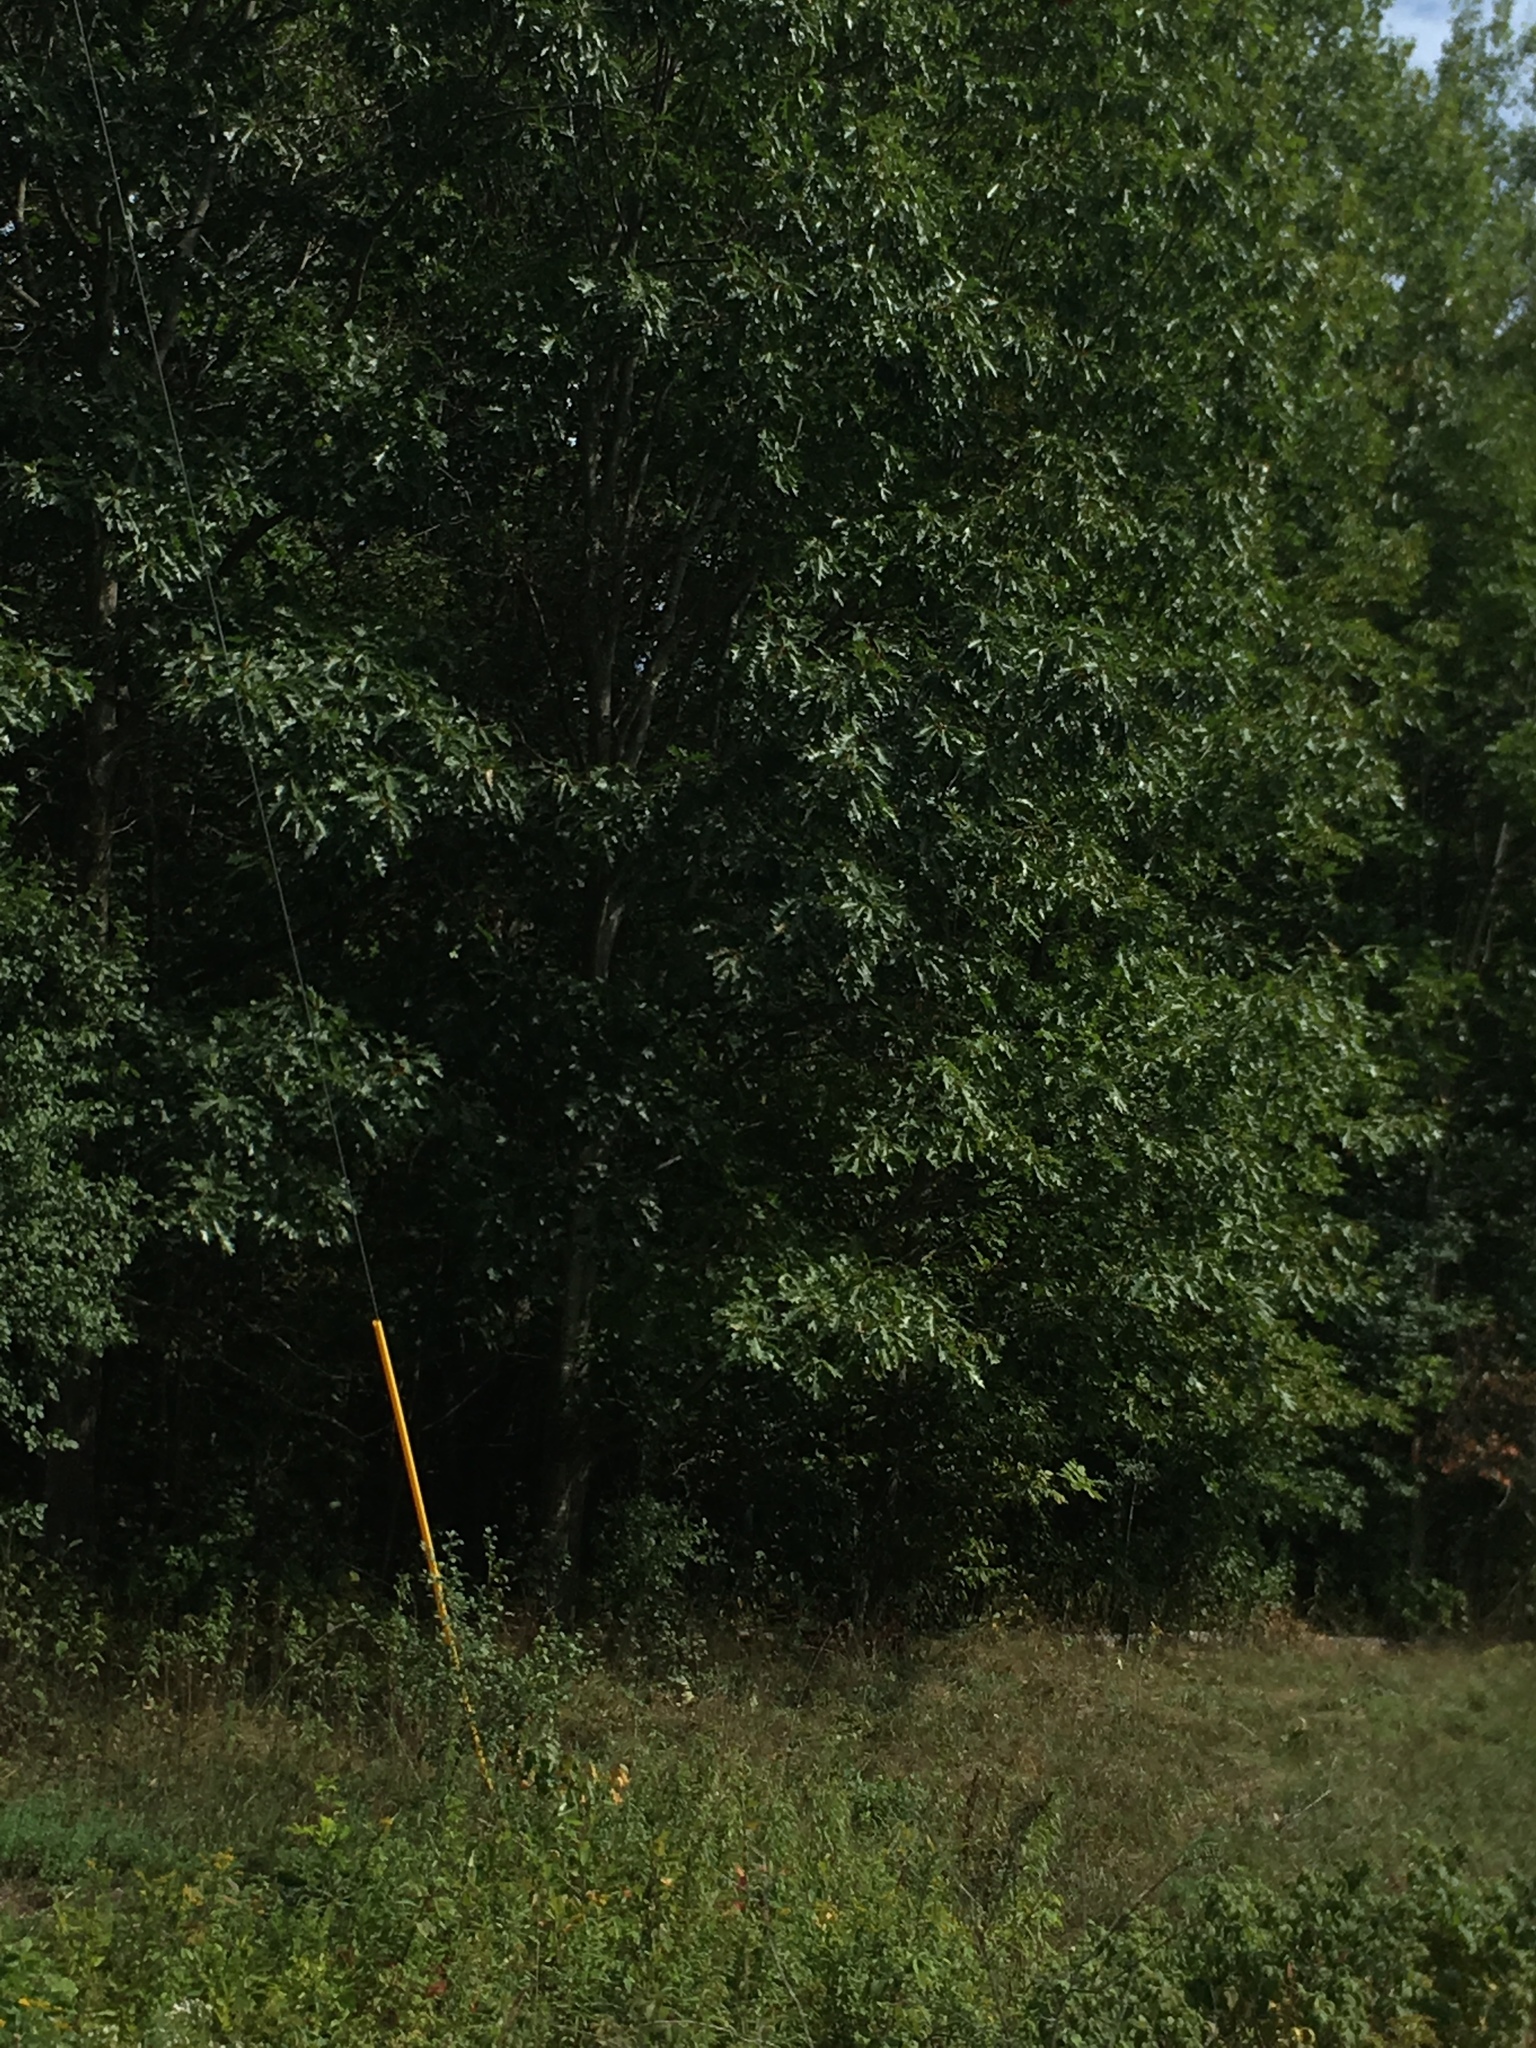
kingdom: Plantae
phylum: Tracheophyta
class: Magnoliopsida
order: Fagales
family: Fagaceae
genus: Quercus
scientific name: Quercus rubra
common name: Red oak
